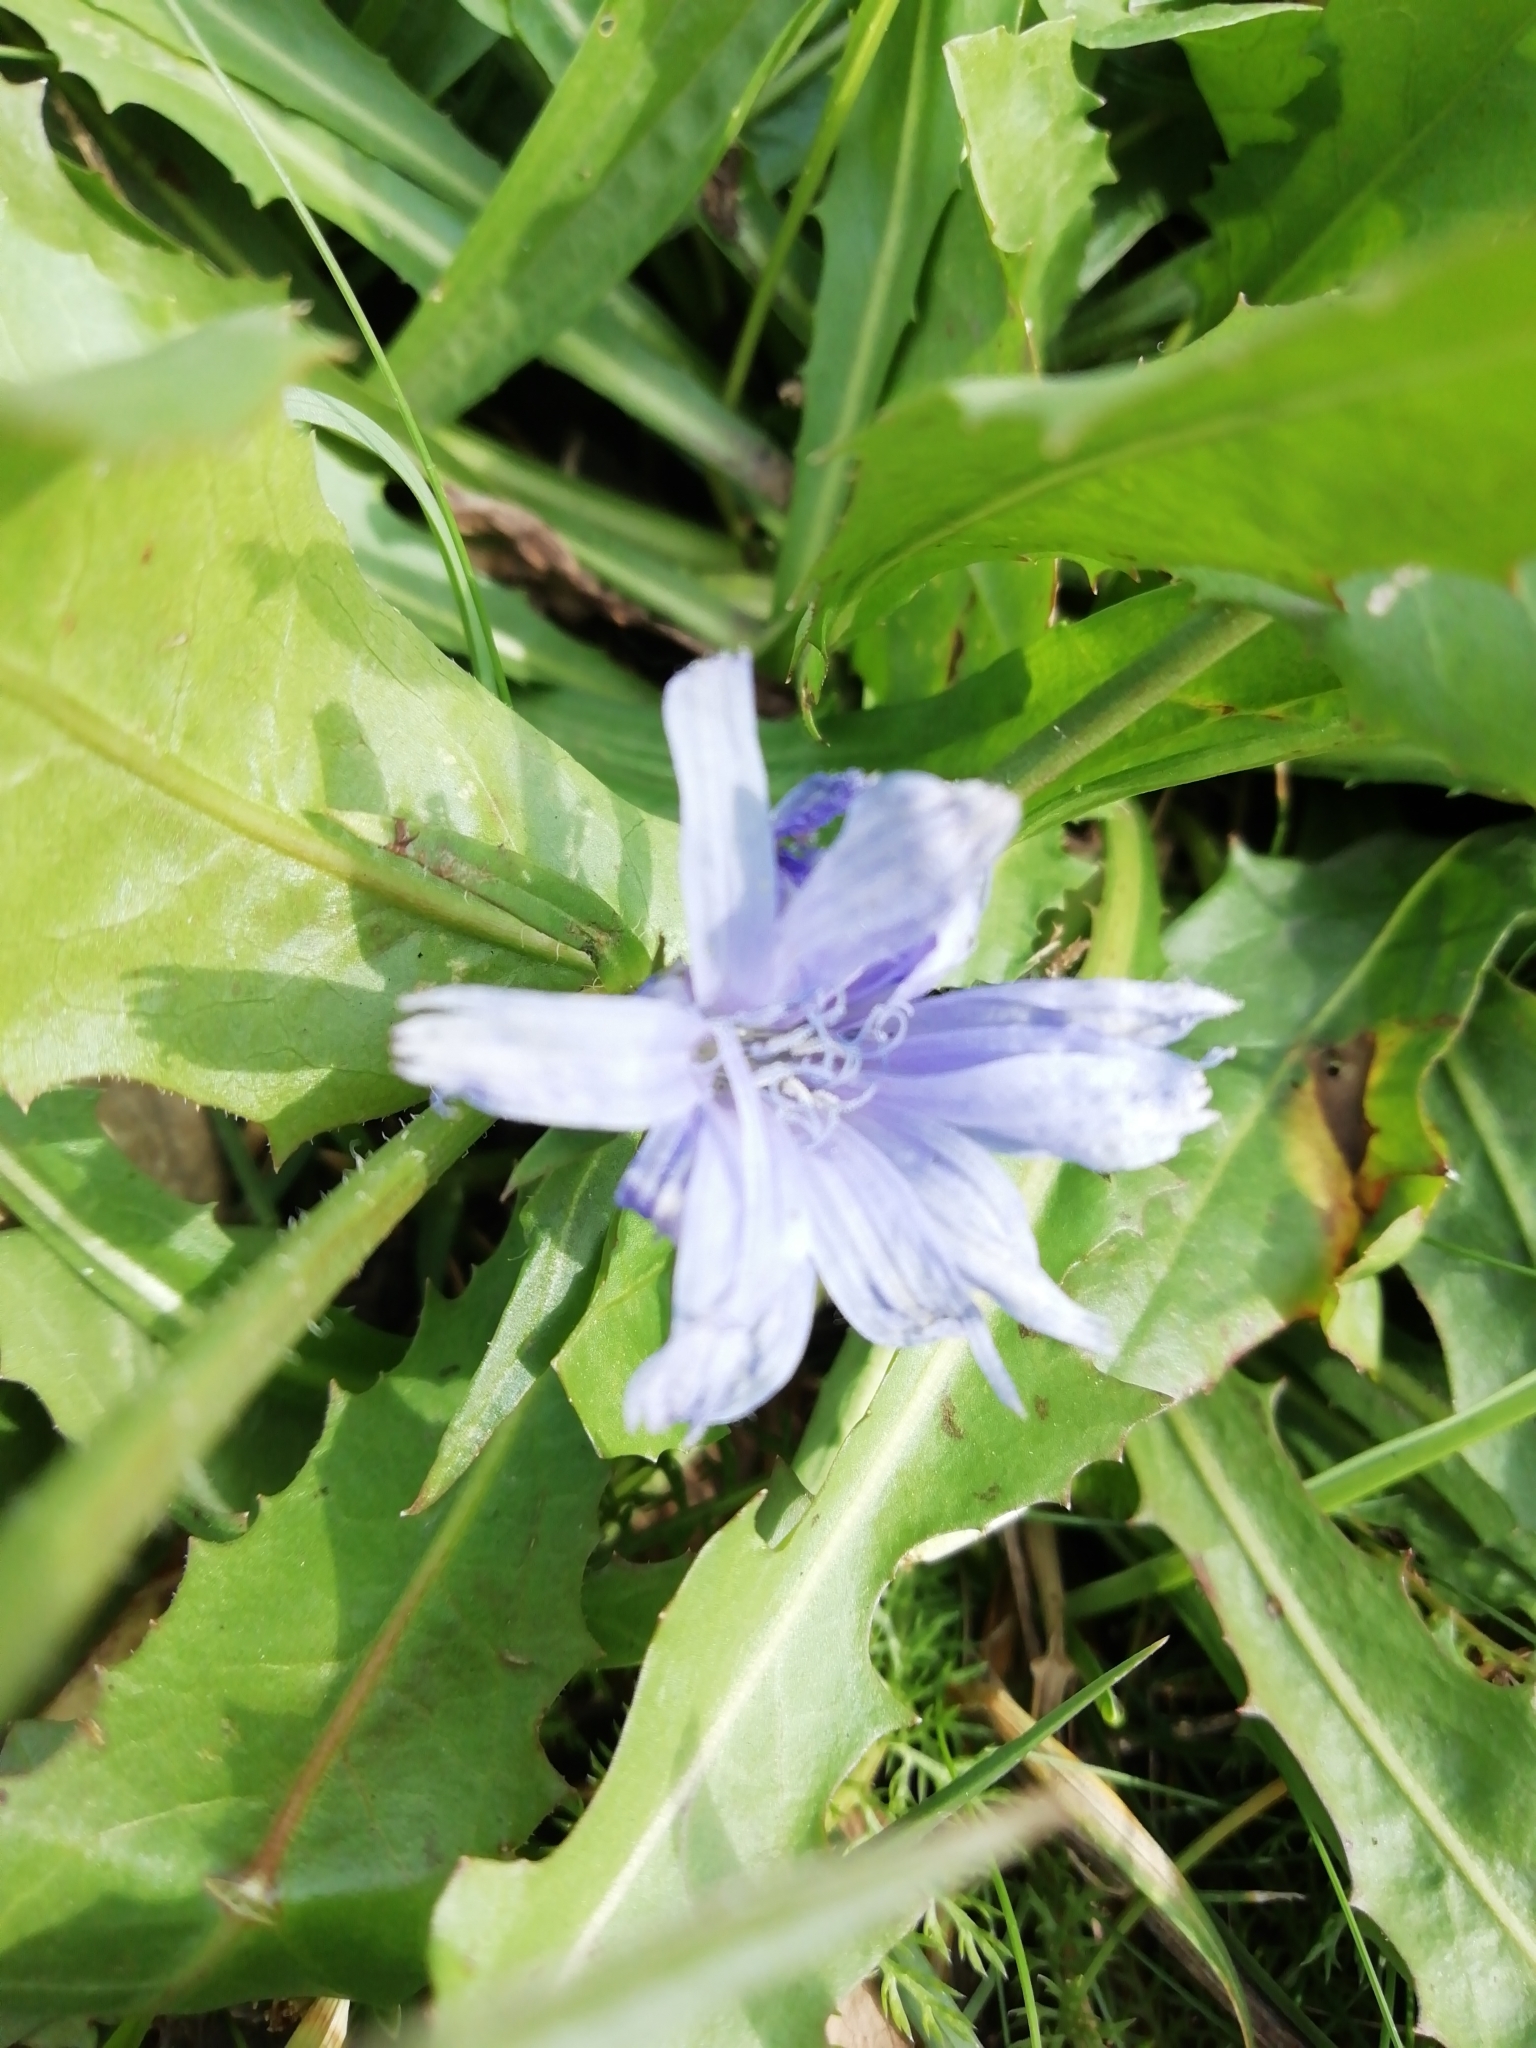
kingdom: Plantae
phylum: Tracheophyta
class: Magnoliopsida
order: Asterales
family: Asteraceae
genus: Cichorium
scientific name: Cichorium intybus
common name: Chicory
